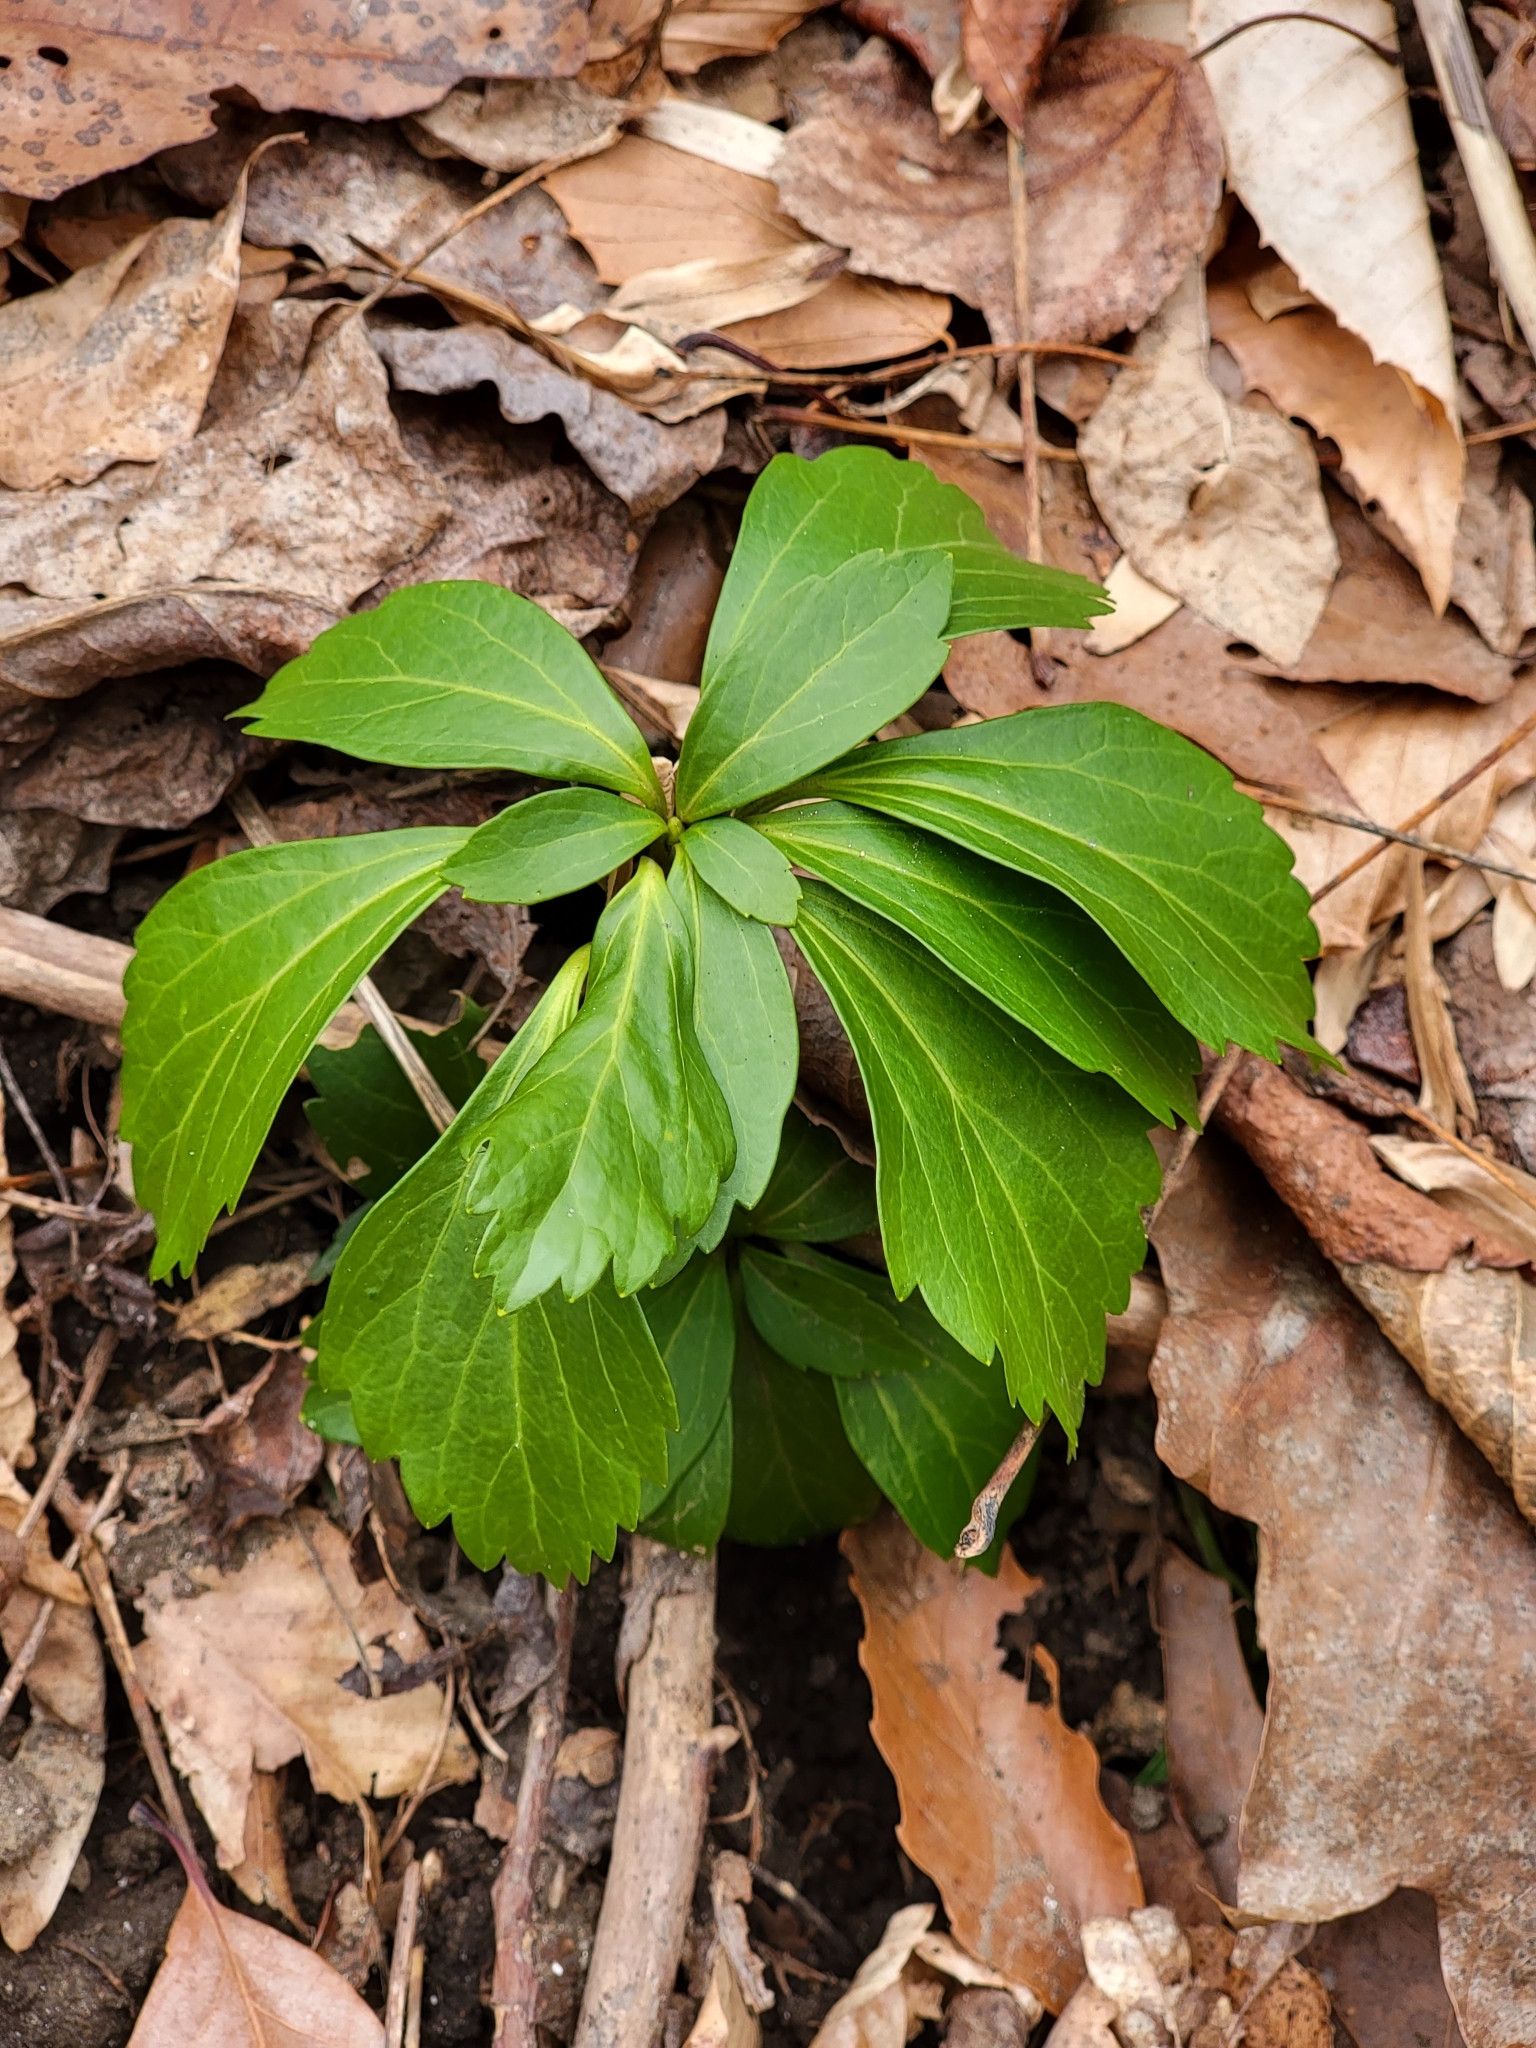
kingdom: Plantae
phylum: Tracheophyta
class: Magnoliopsida
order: Buxales
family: Buxaceae
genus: Pachysandra
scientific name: Pachysandra terminalis
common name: Japanese pachysandra
